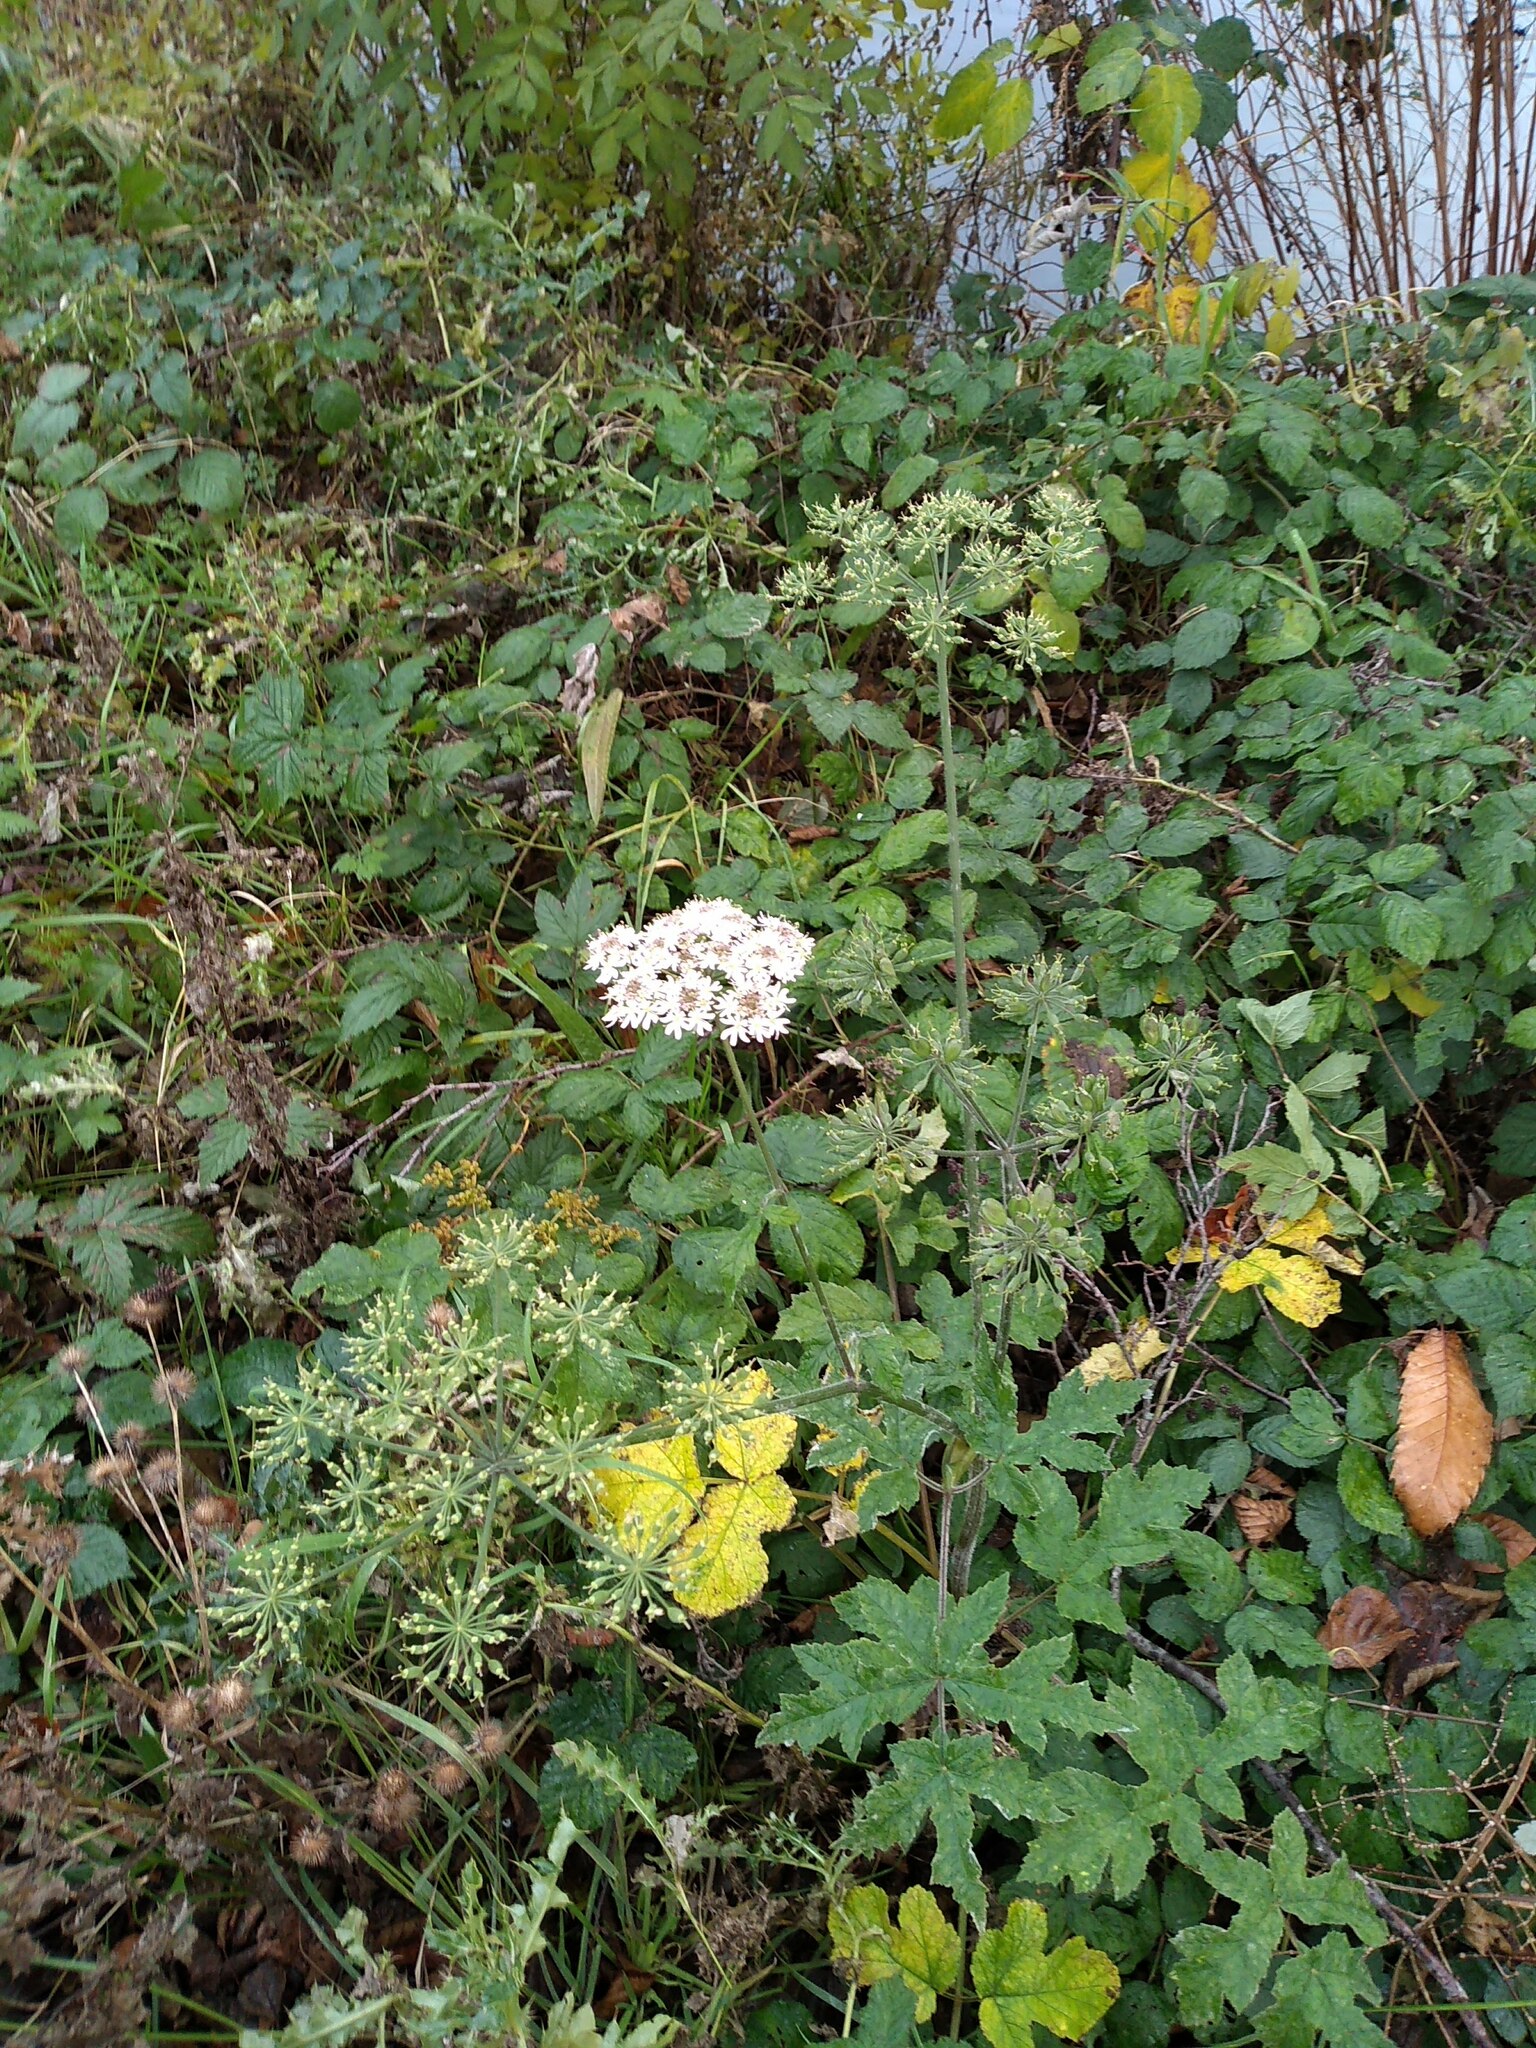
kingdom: Plantae
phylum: Tracheophyta
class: Magnoliopsida
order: Apiales
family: Apiaceae
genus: Heracleum
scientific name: Heracleum sphondylium
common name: Hogweed
